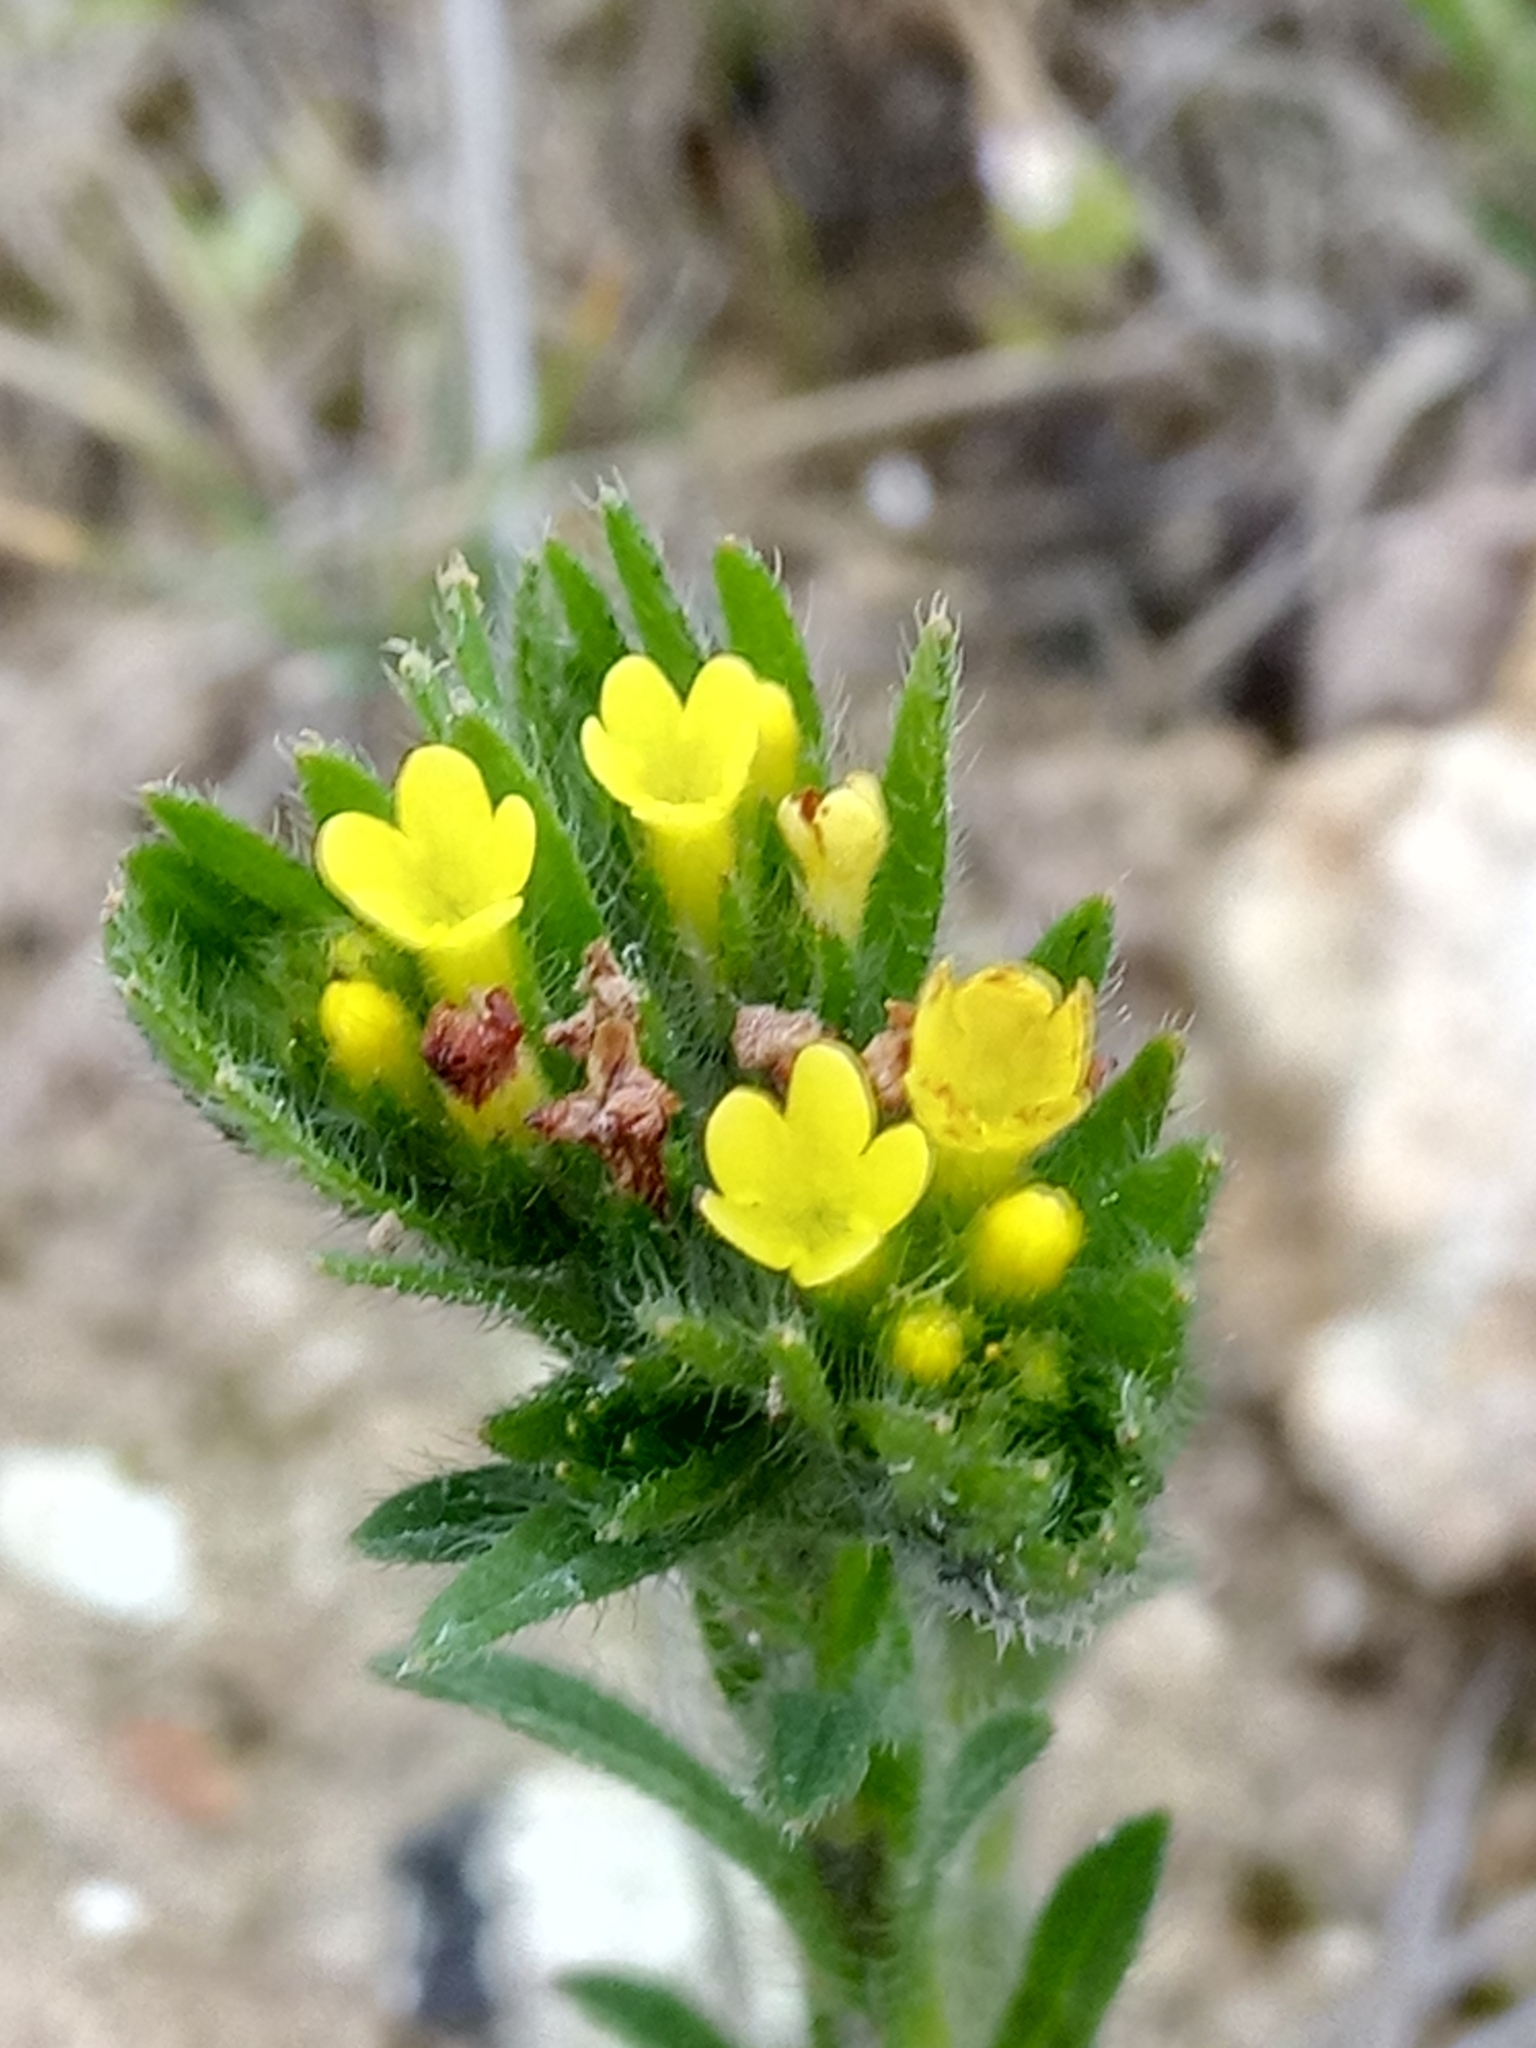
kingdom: Plantae
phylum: Tracheophyta
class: Magnoliopsida
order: Boraginales
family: Boraginaceae
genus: Neatostema
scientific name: Neatostema apulum
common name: Hairy sheepweed
